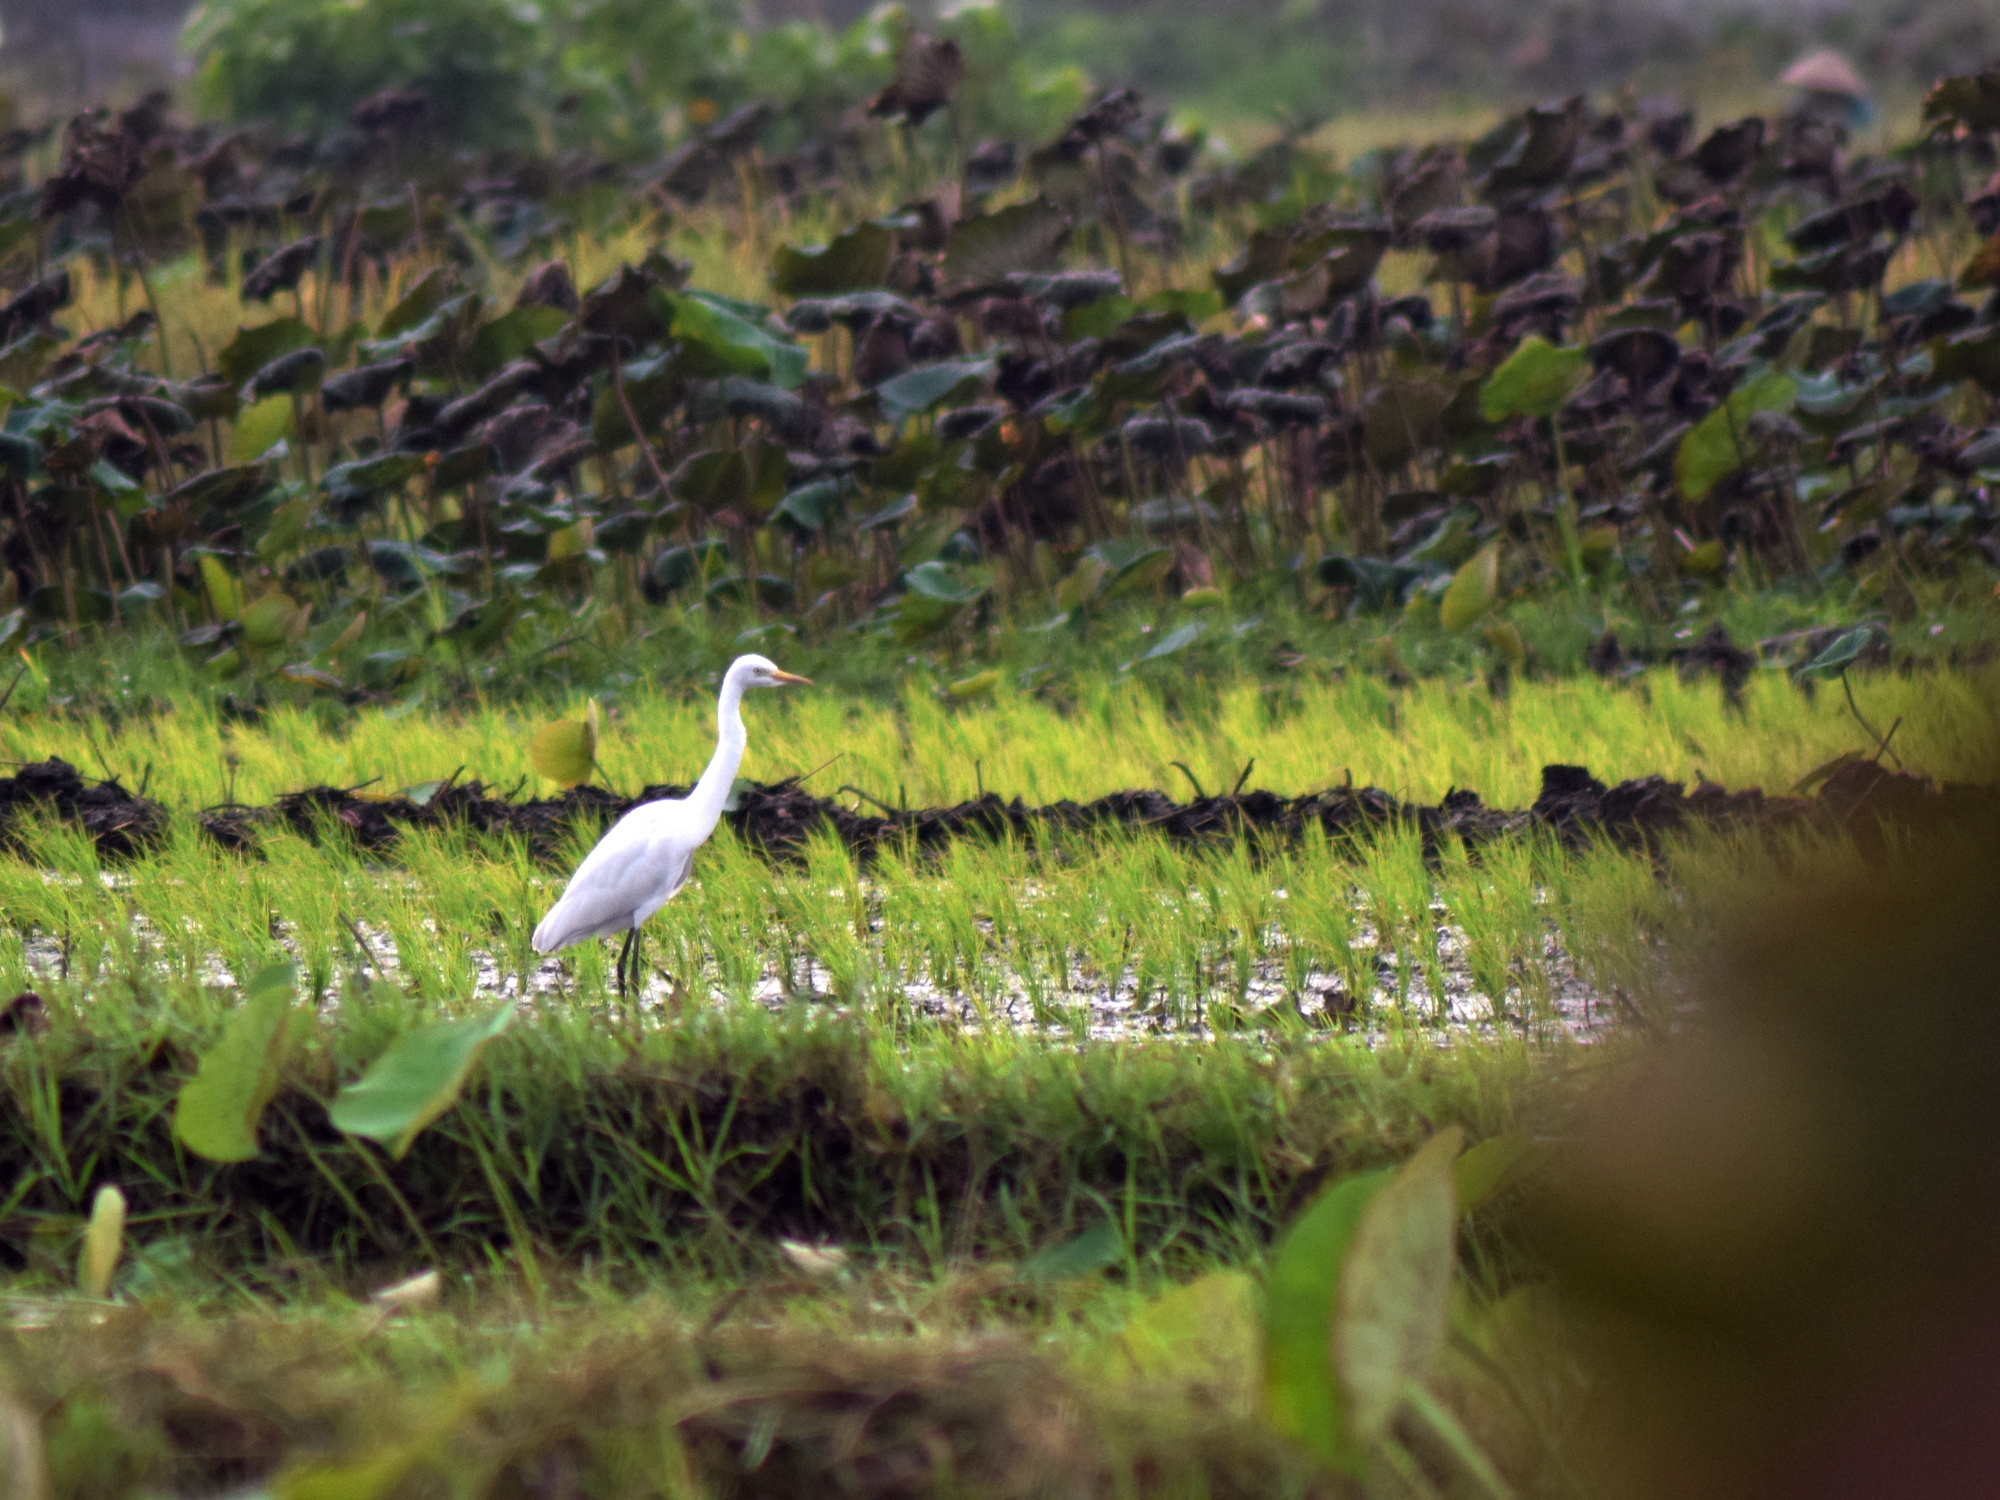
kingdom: Animalia
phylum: Chordata
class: Aves
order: Pelecaniformes
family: Ardeidae
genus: Egretta
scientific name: Egretta intermedia
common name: Intermediate egret
